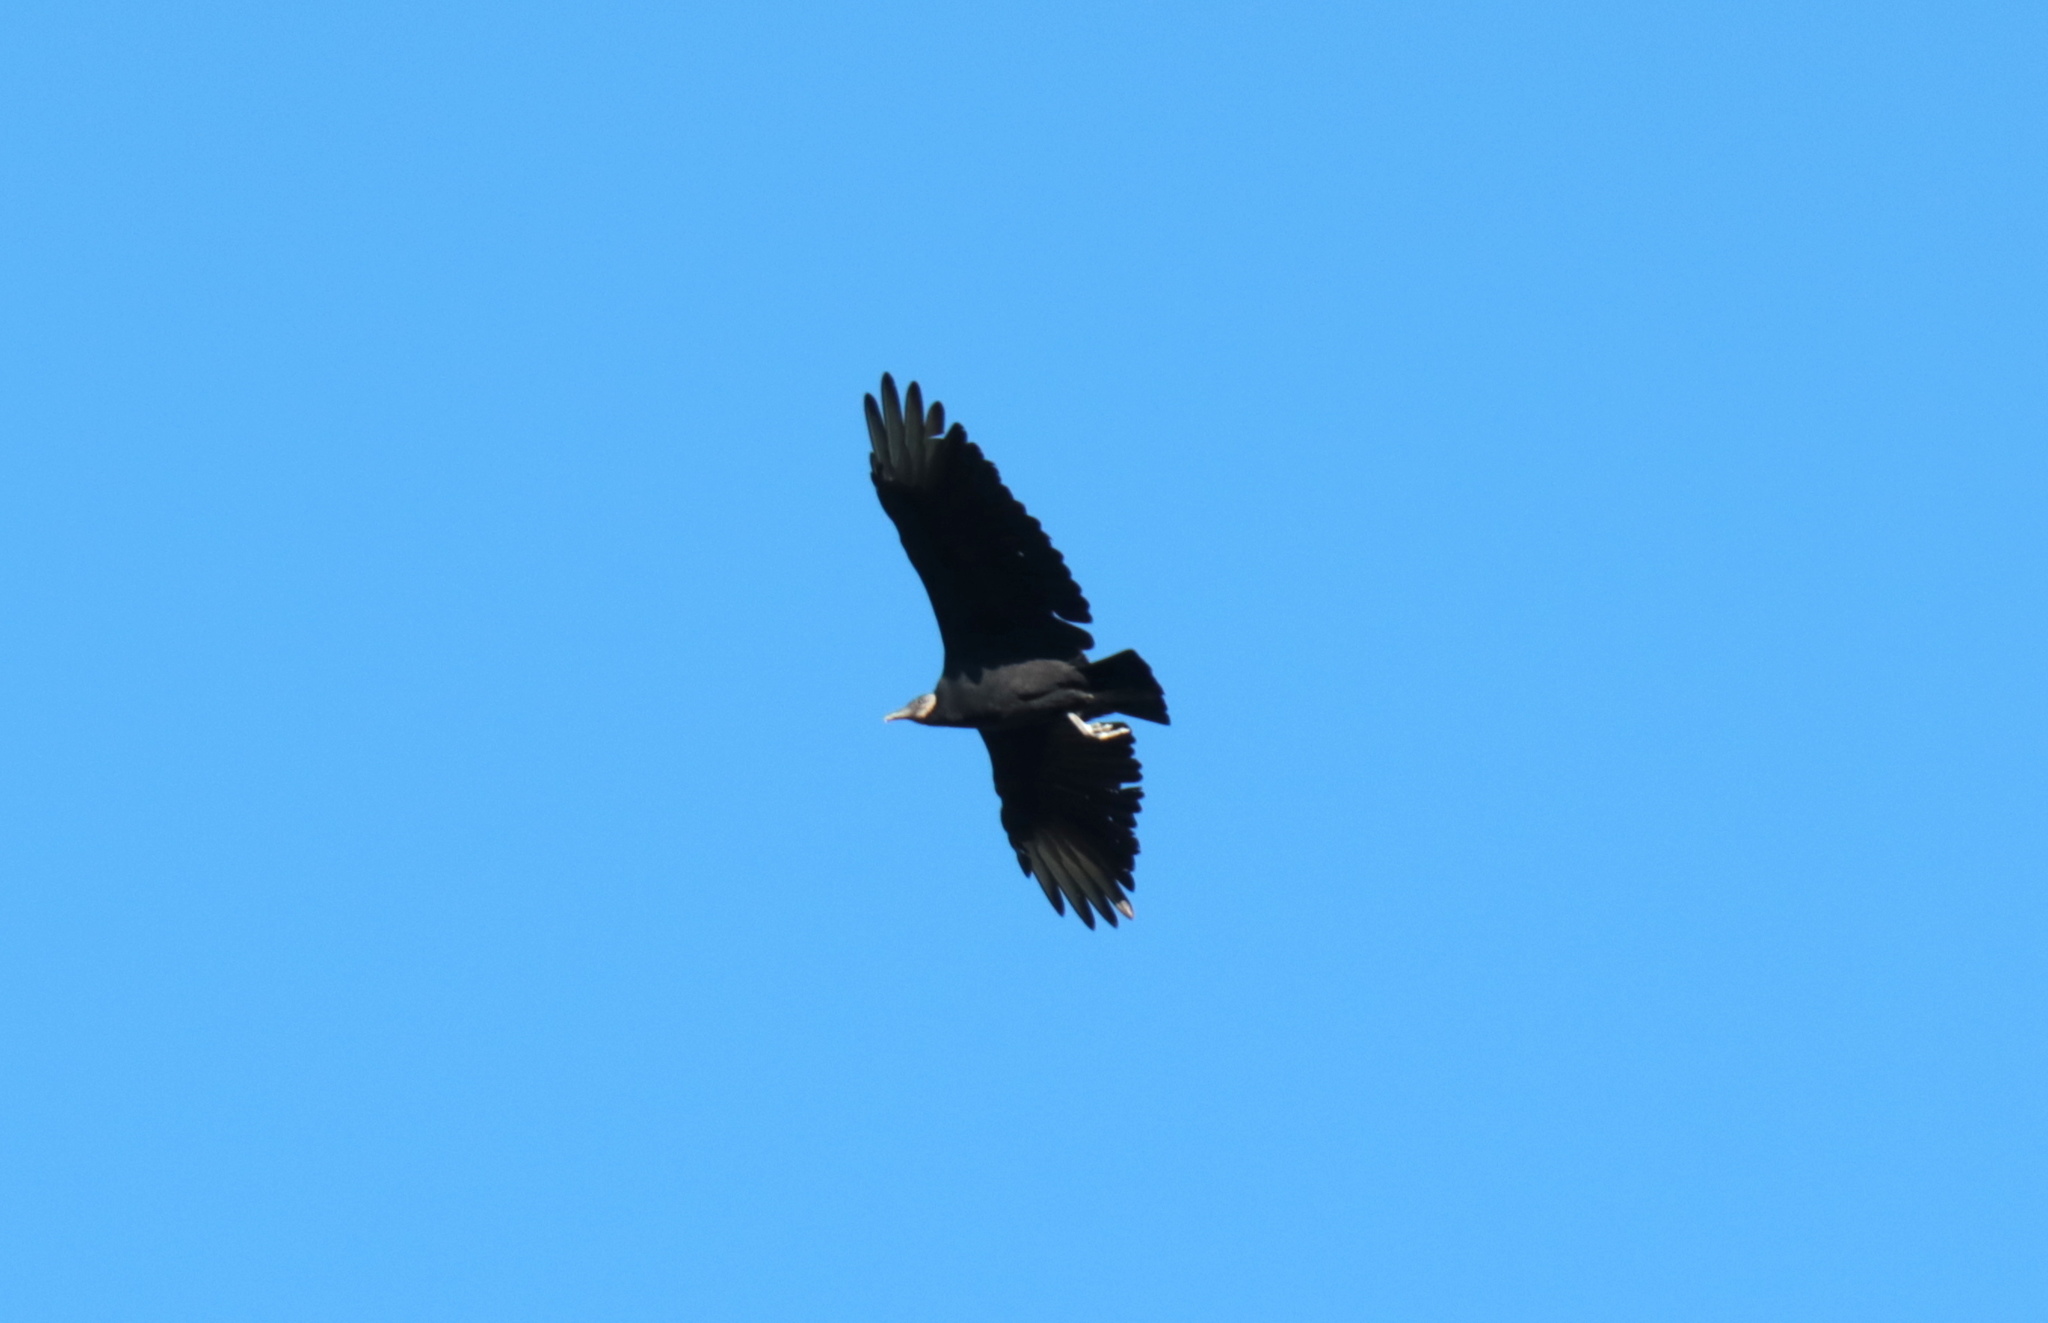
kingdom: Animalia
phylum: Chordata
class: Aves
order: Accipitriformes
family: Cathartidae
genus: Coragyps
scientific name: Coragyps atratus
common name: Black vulture
